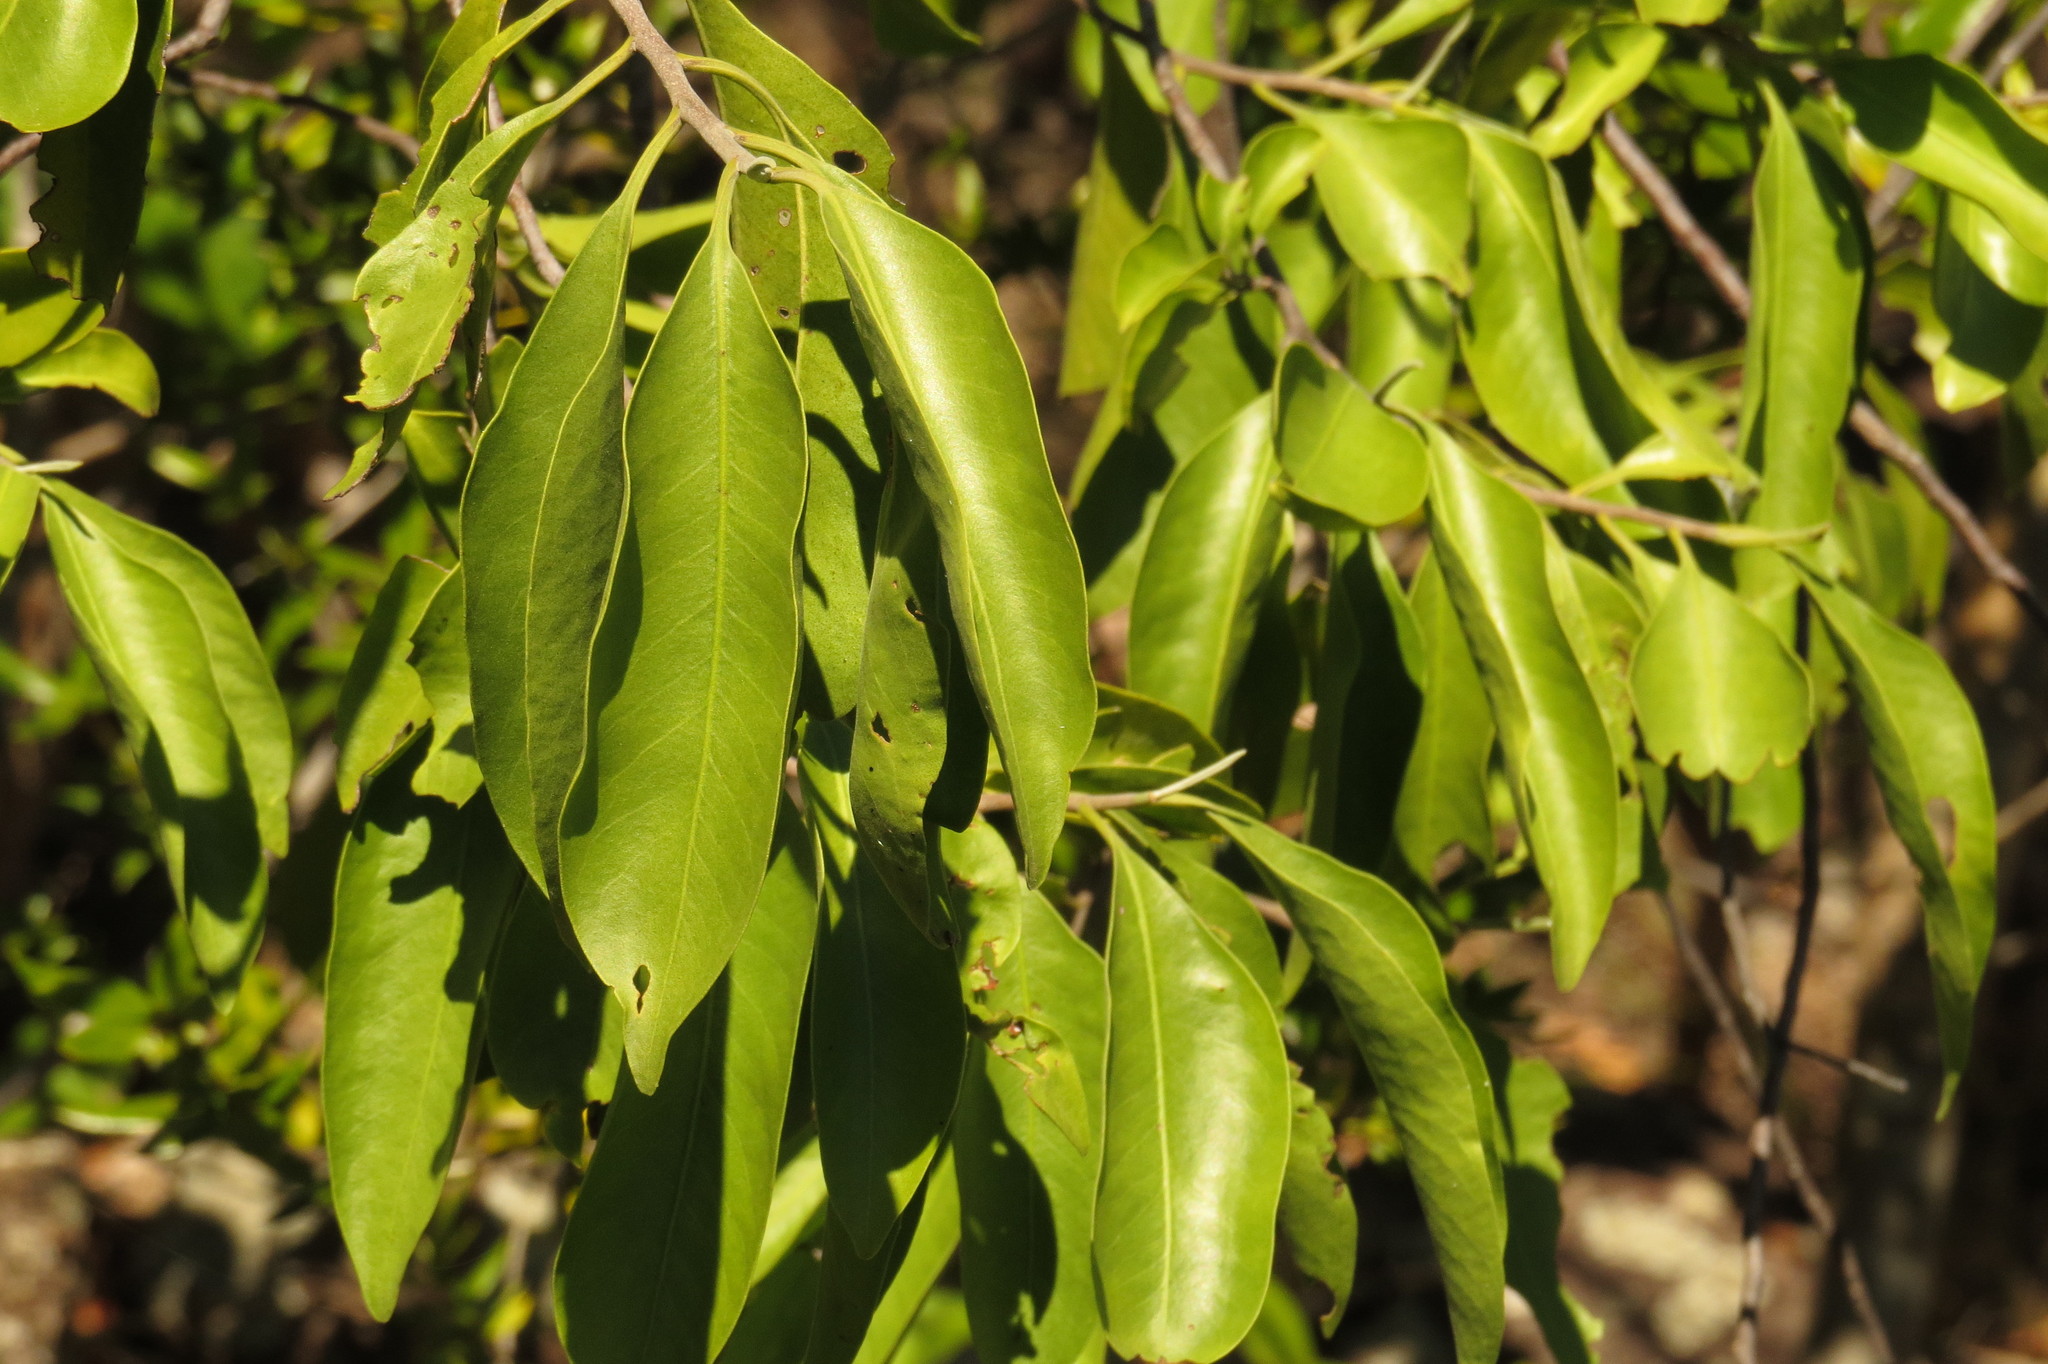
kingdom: Plantae
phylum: Tracheophyta
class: Magnoliopsida
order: Sapindales
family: Rutaceae
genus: Geijera
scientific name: Geijera salicifolia
